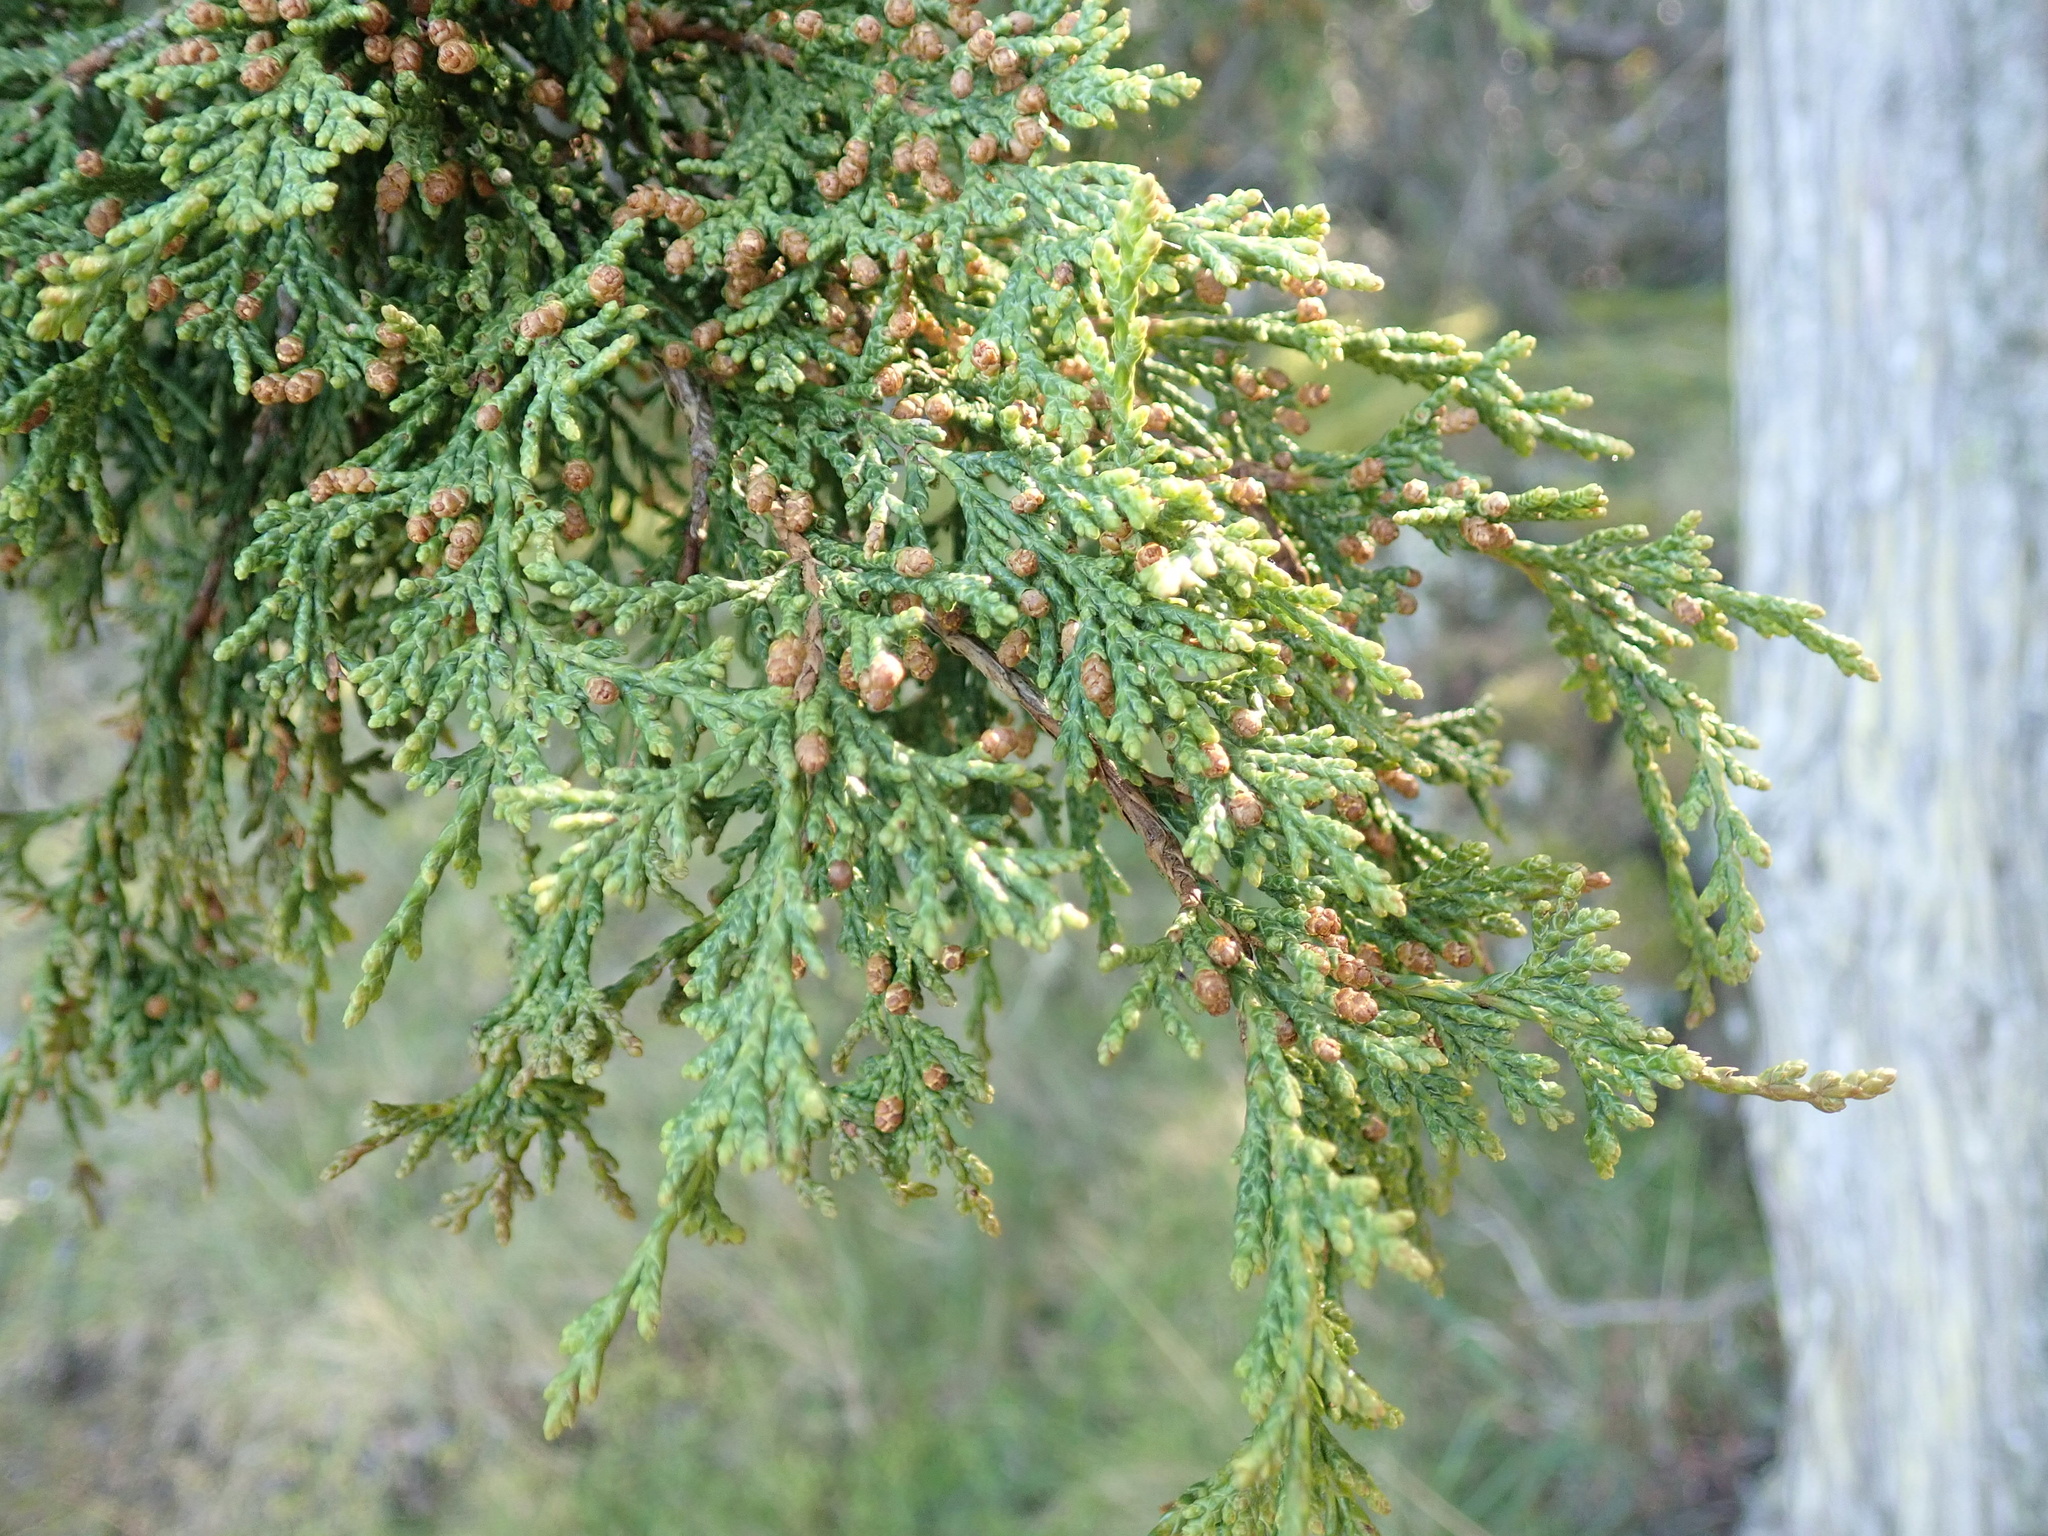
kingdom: Plantae
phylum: Tracheophyta
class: Pinopsida
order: Pinales
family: Cupressaceae
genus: Juniperus
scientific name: Juniperus scopulorum
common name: Rocky mountain juniper
